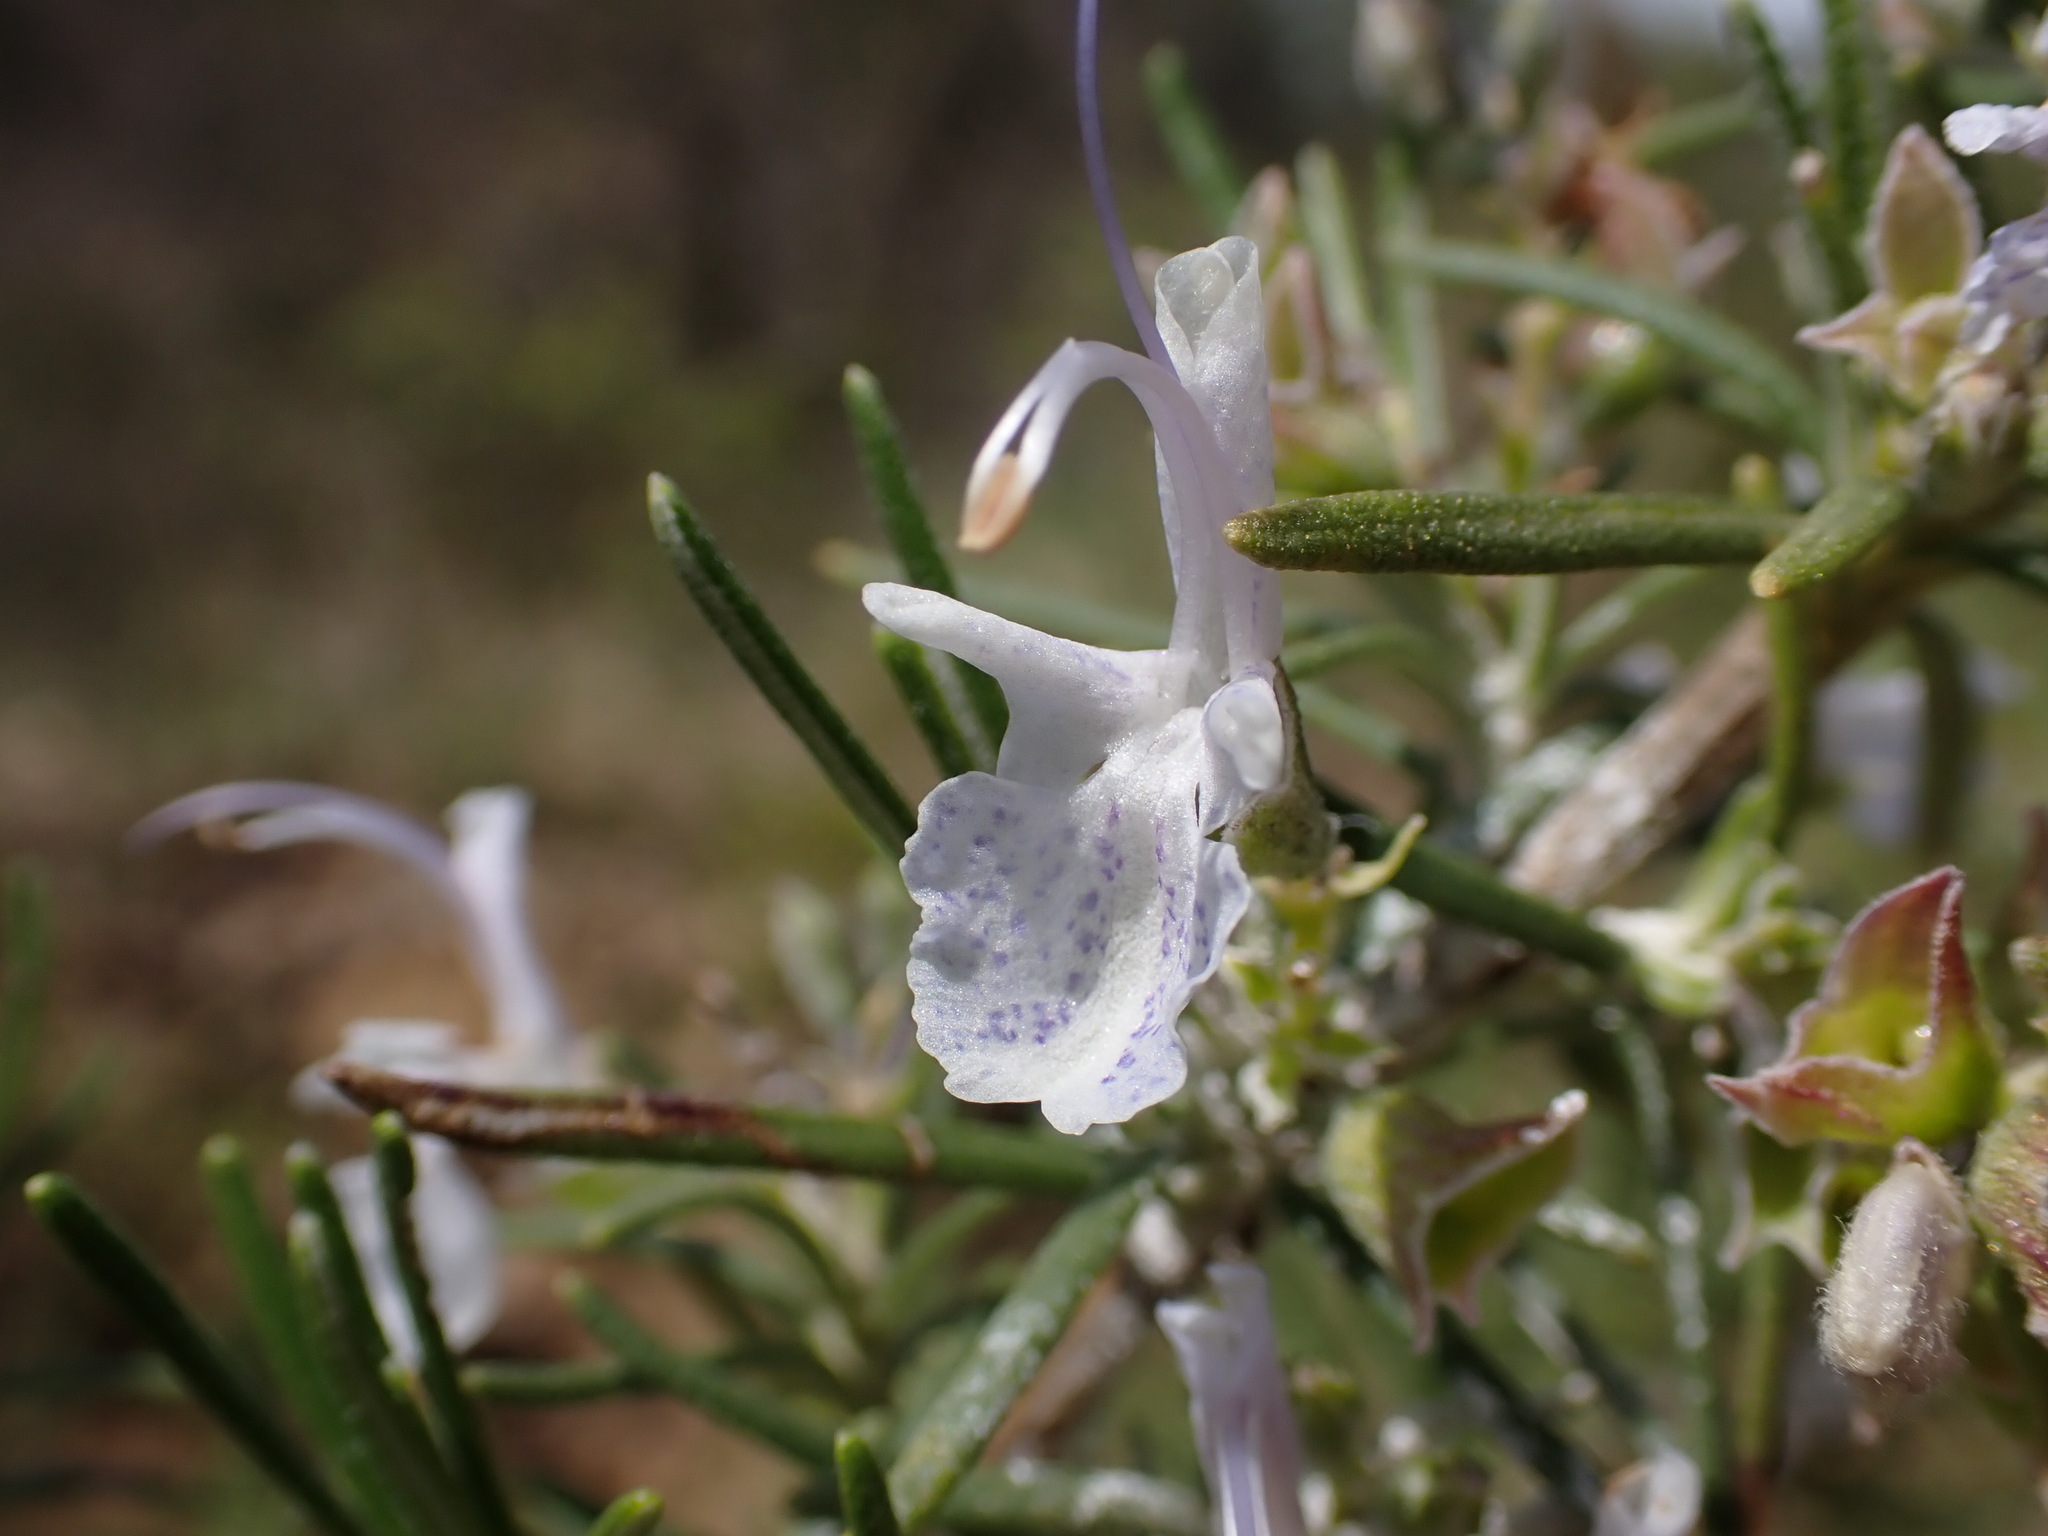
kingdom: Plantae
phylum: Tracheophyta
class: Magnoliopsida
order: Lamiales
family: Lamiaceae
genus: Salvia
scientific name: Salvia rosmarinus
